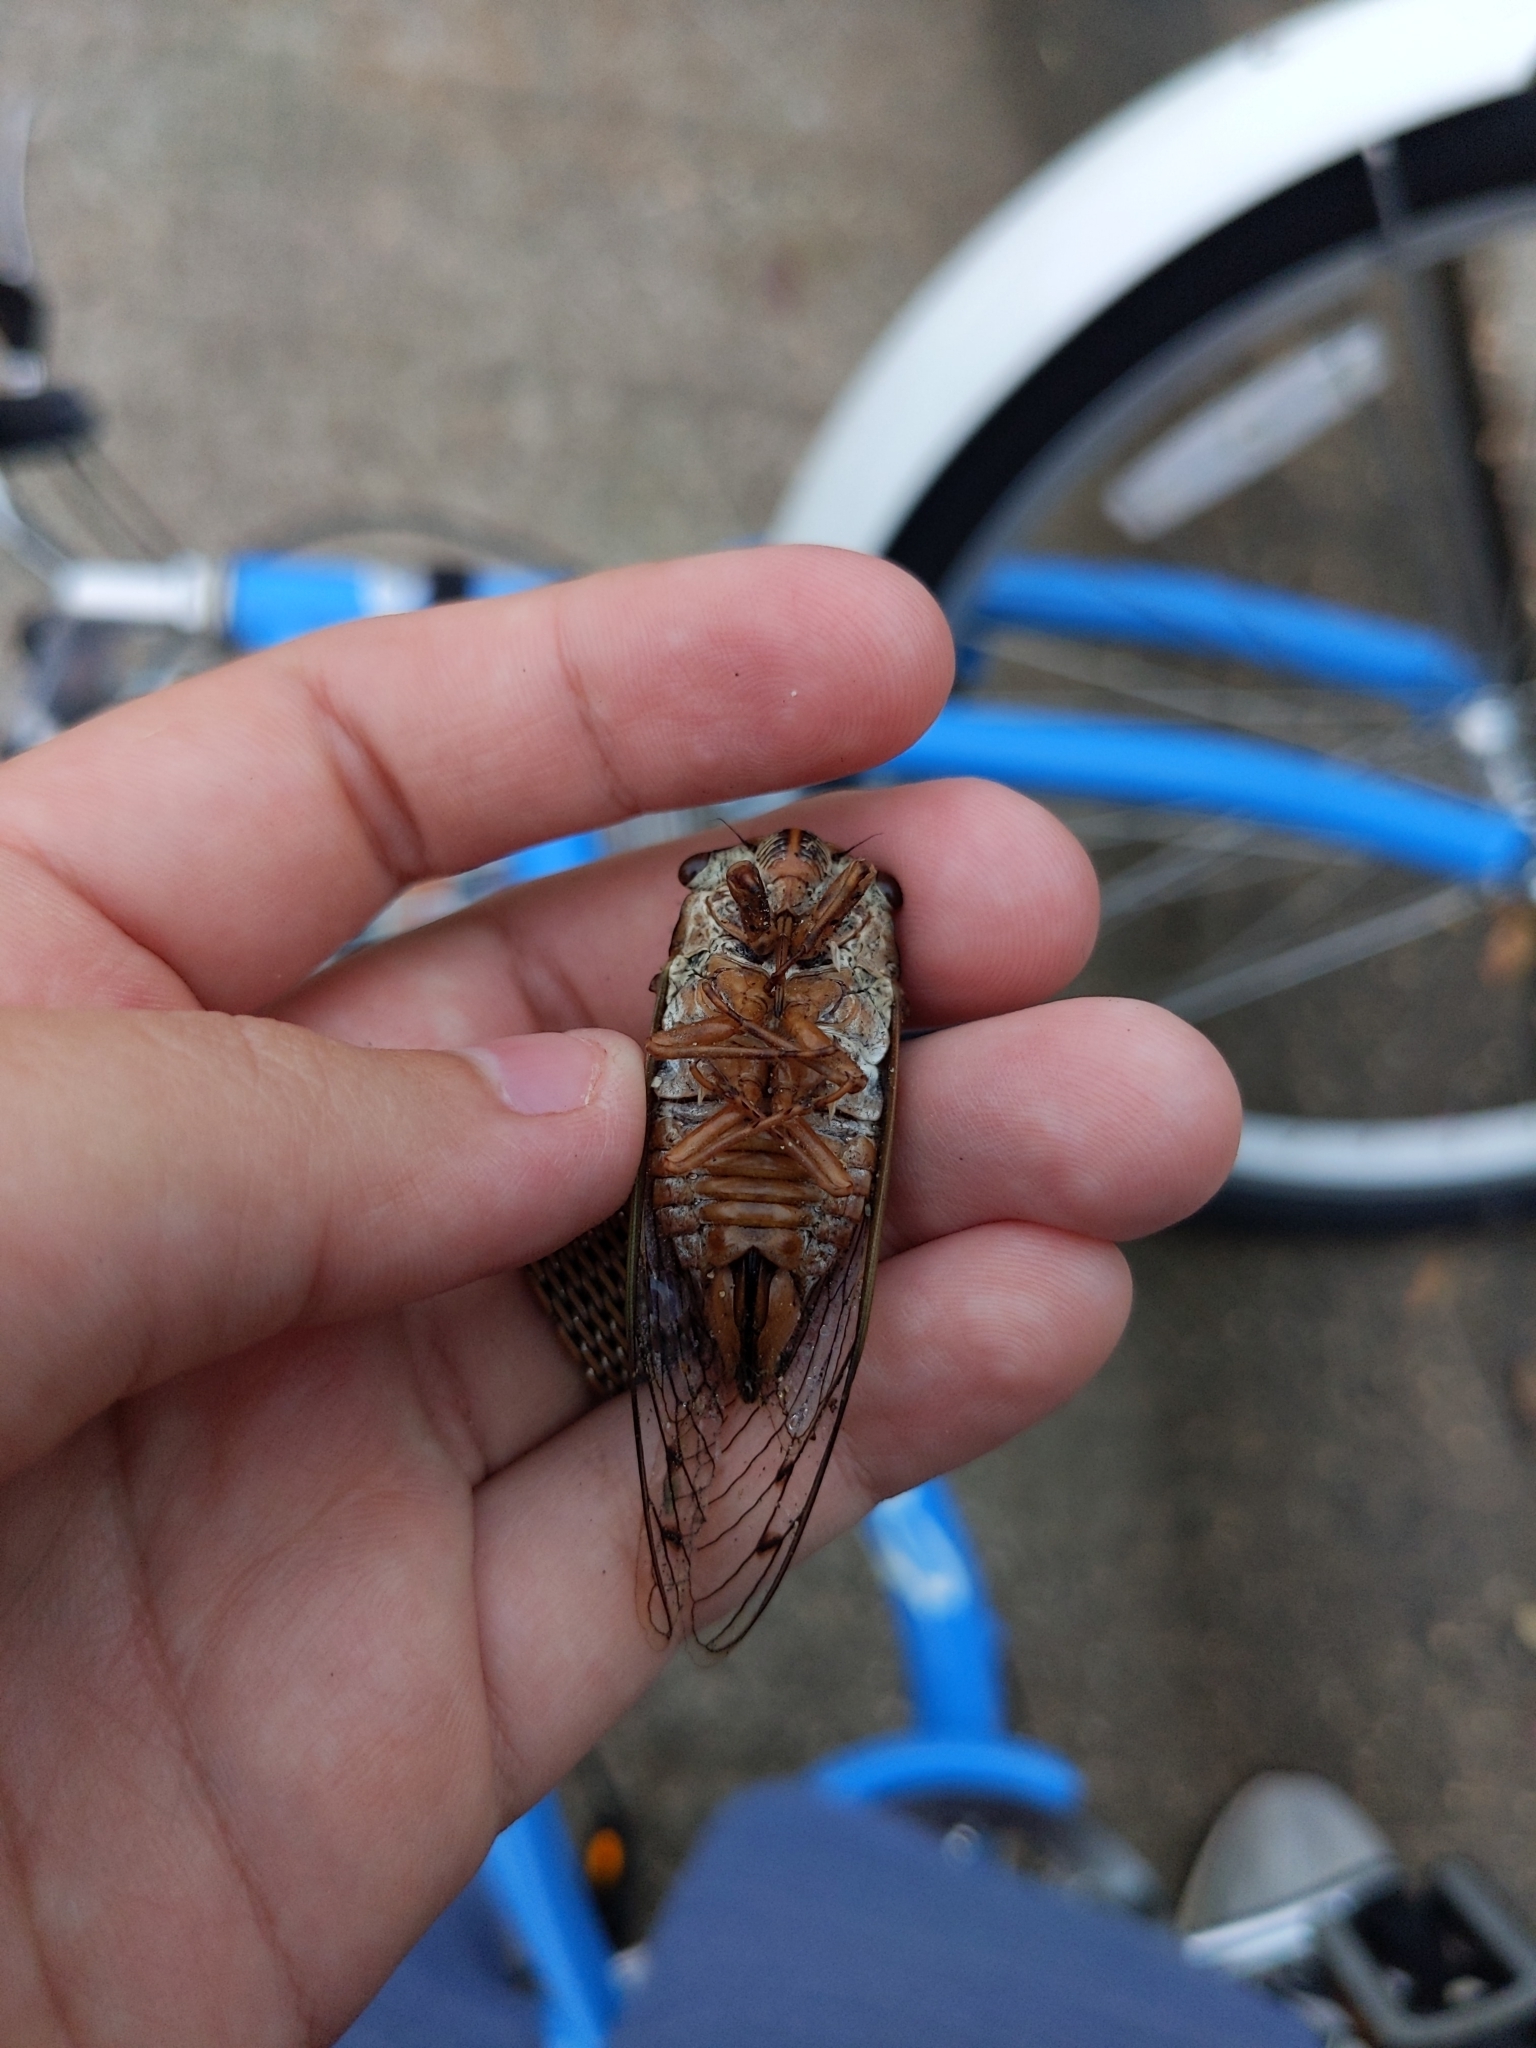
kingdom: Animalia
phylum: Arthropoda
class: Insecta
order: Hemiptera
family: Cicadidae
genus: Megatibicen
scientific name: Megatibicen resh
